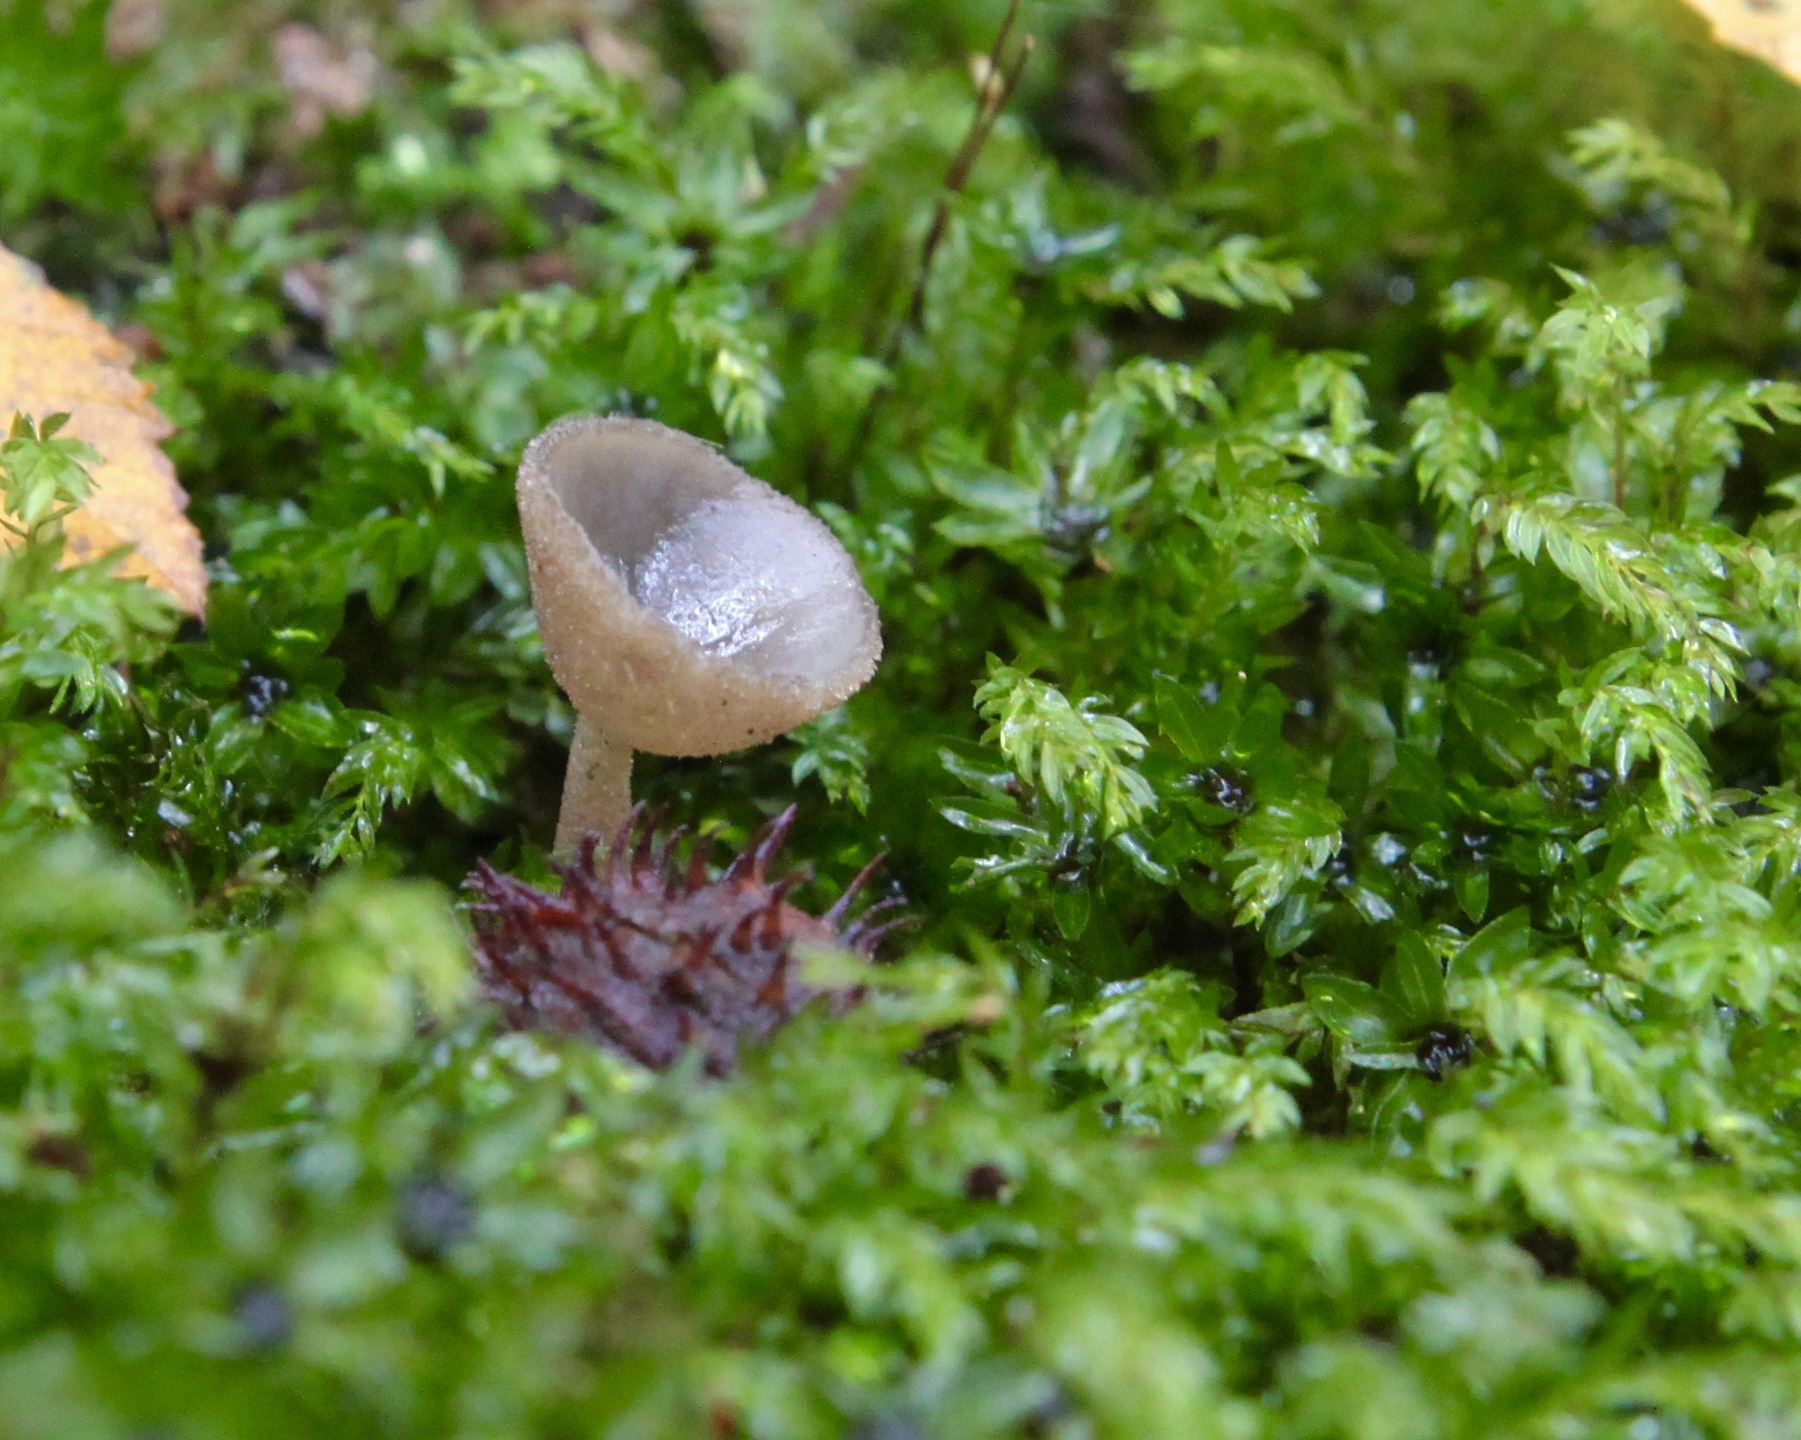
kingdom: Fungi
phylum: Ascomycota
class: Pezizomycetes
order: Pezizales
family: Helvellaceae
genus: Helvella
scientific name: Helvella macropus
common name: Felt saddle
